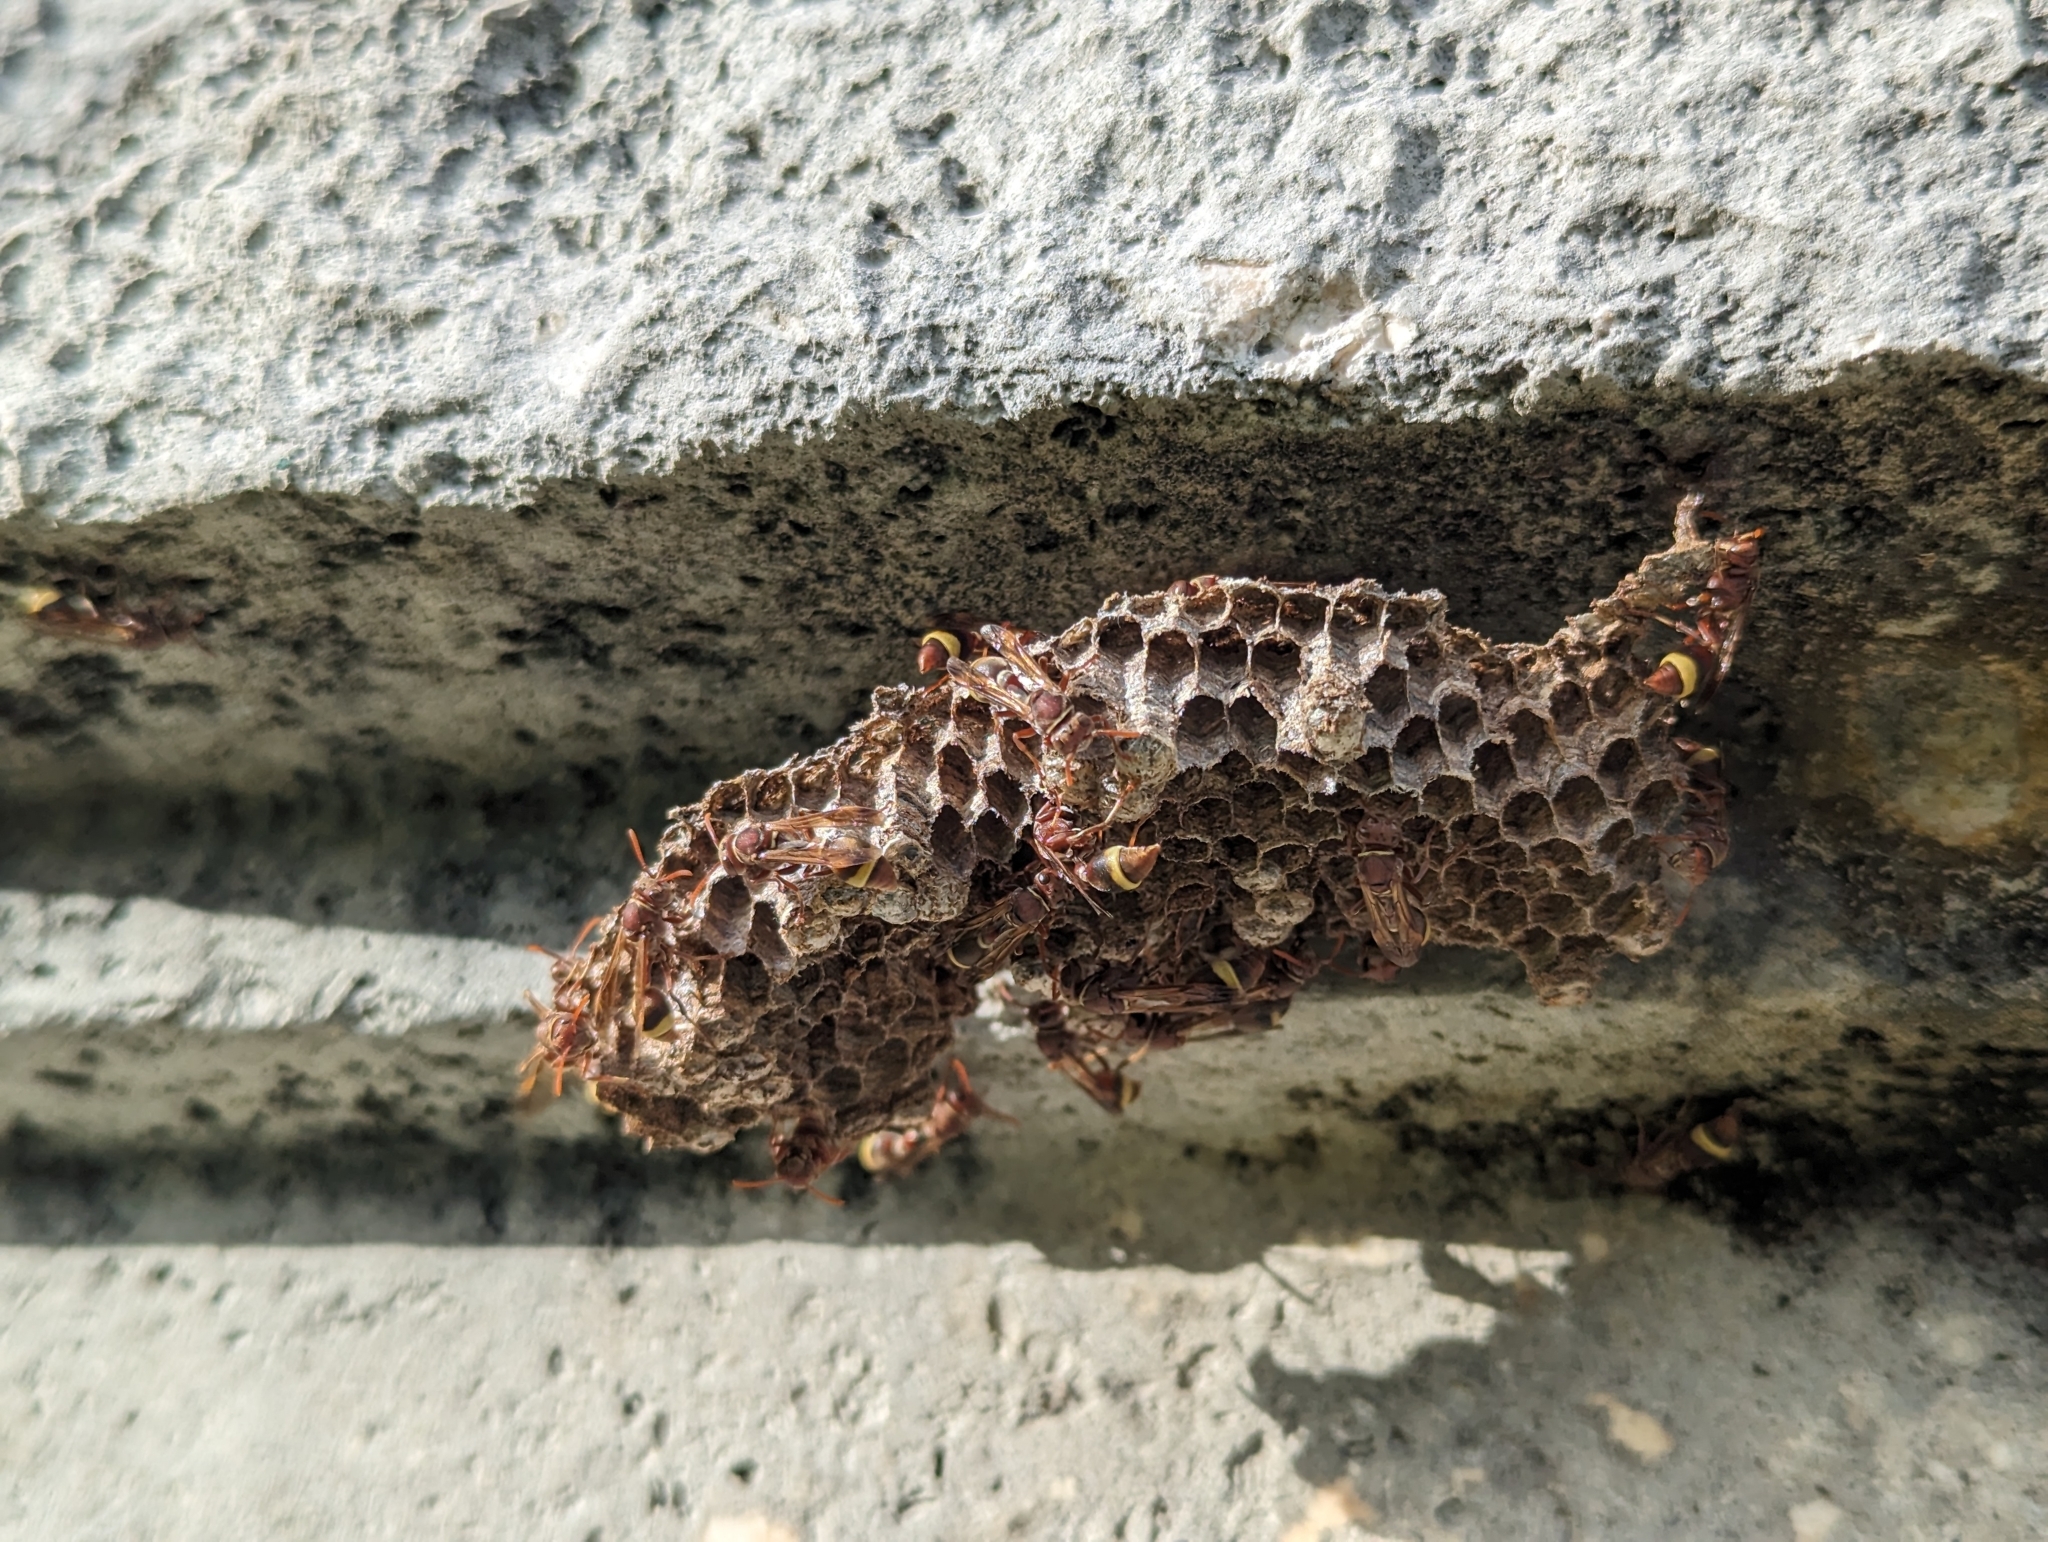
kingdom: Animalia
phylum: Arthropoda
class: Insecta
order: Hymenoptera
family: Vespidae
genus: Ropalidia
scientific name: Ropalidia marginata
